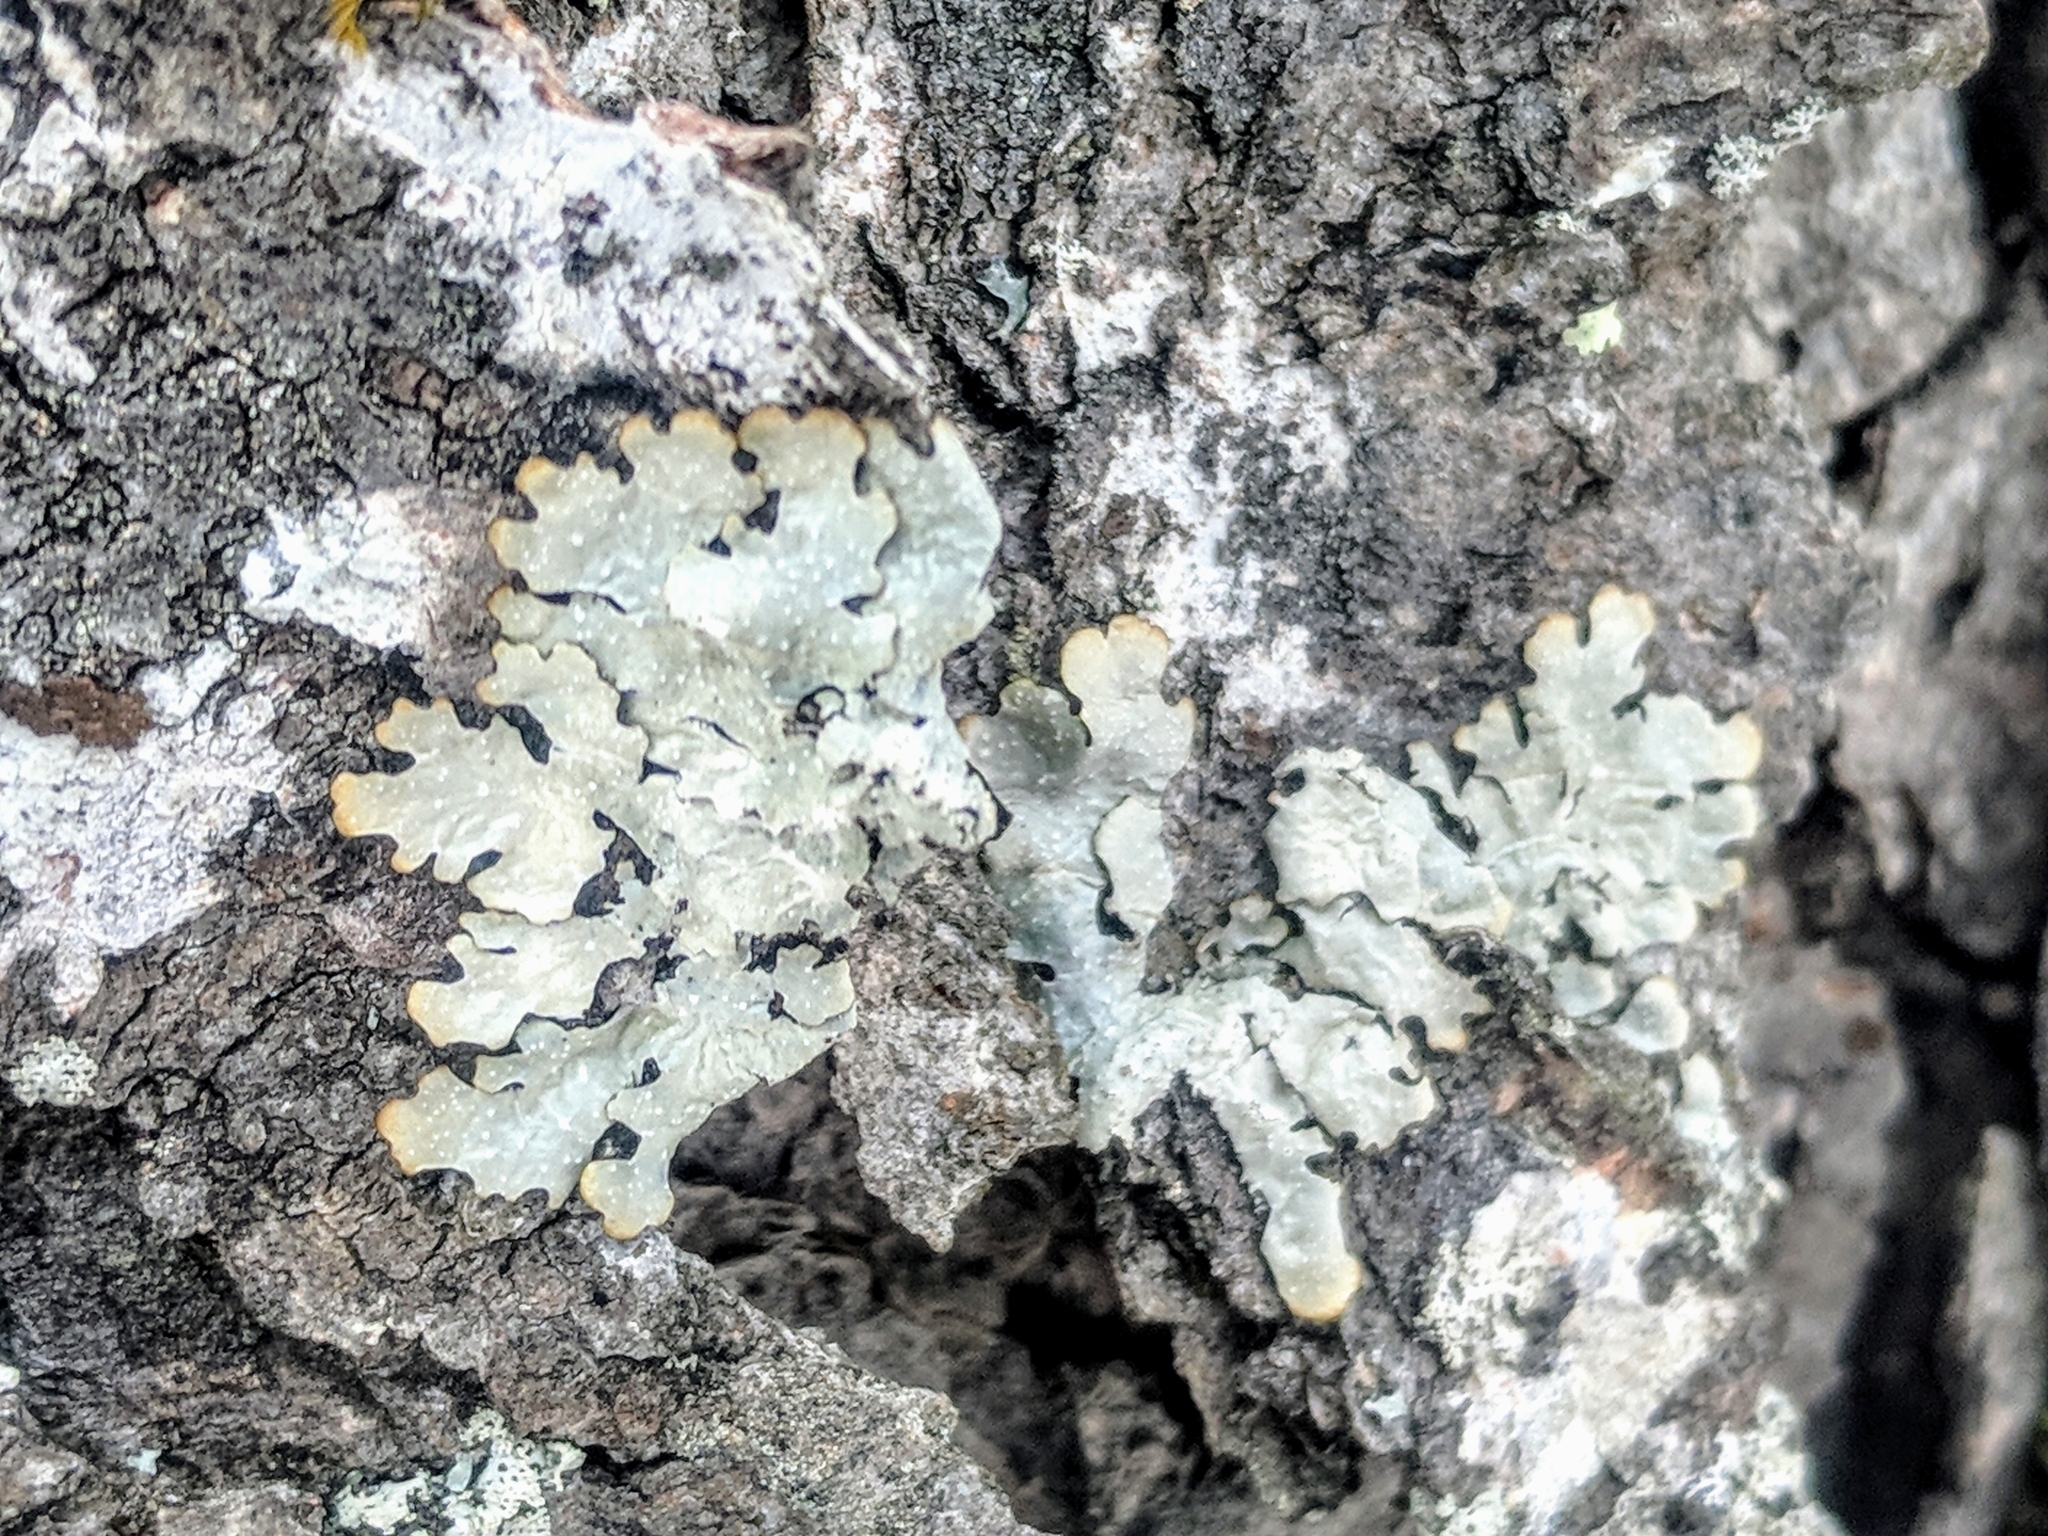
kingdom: Fungi
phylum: Ascomycota
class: Lecanoromycetes
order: Lecanorales
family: Parmeliaceae
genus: Punctelia
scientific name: Punctelia rudecta
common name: Rough speckled shield lichen
